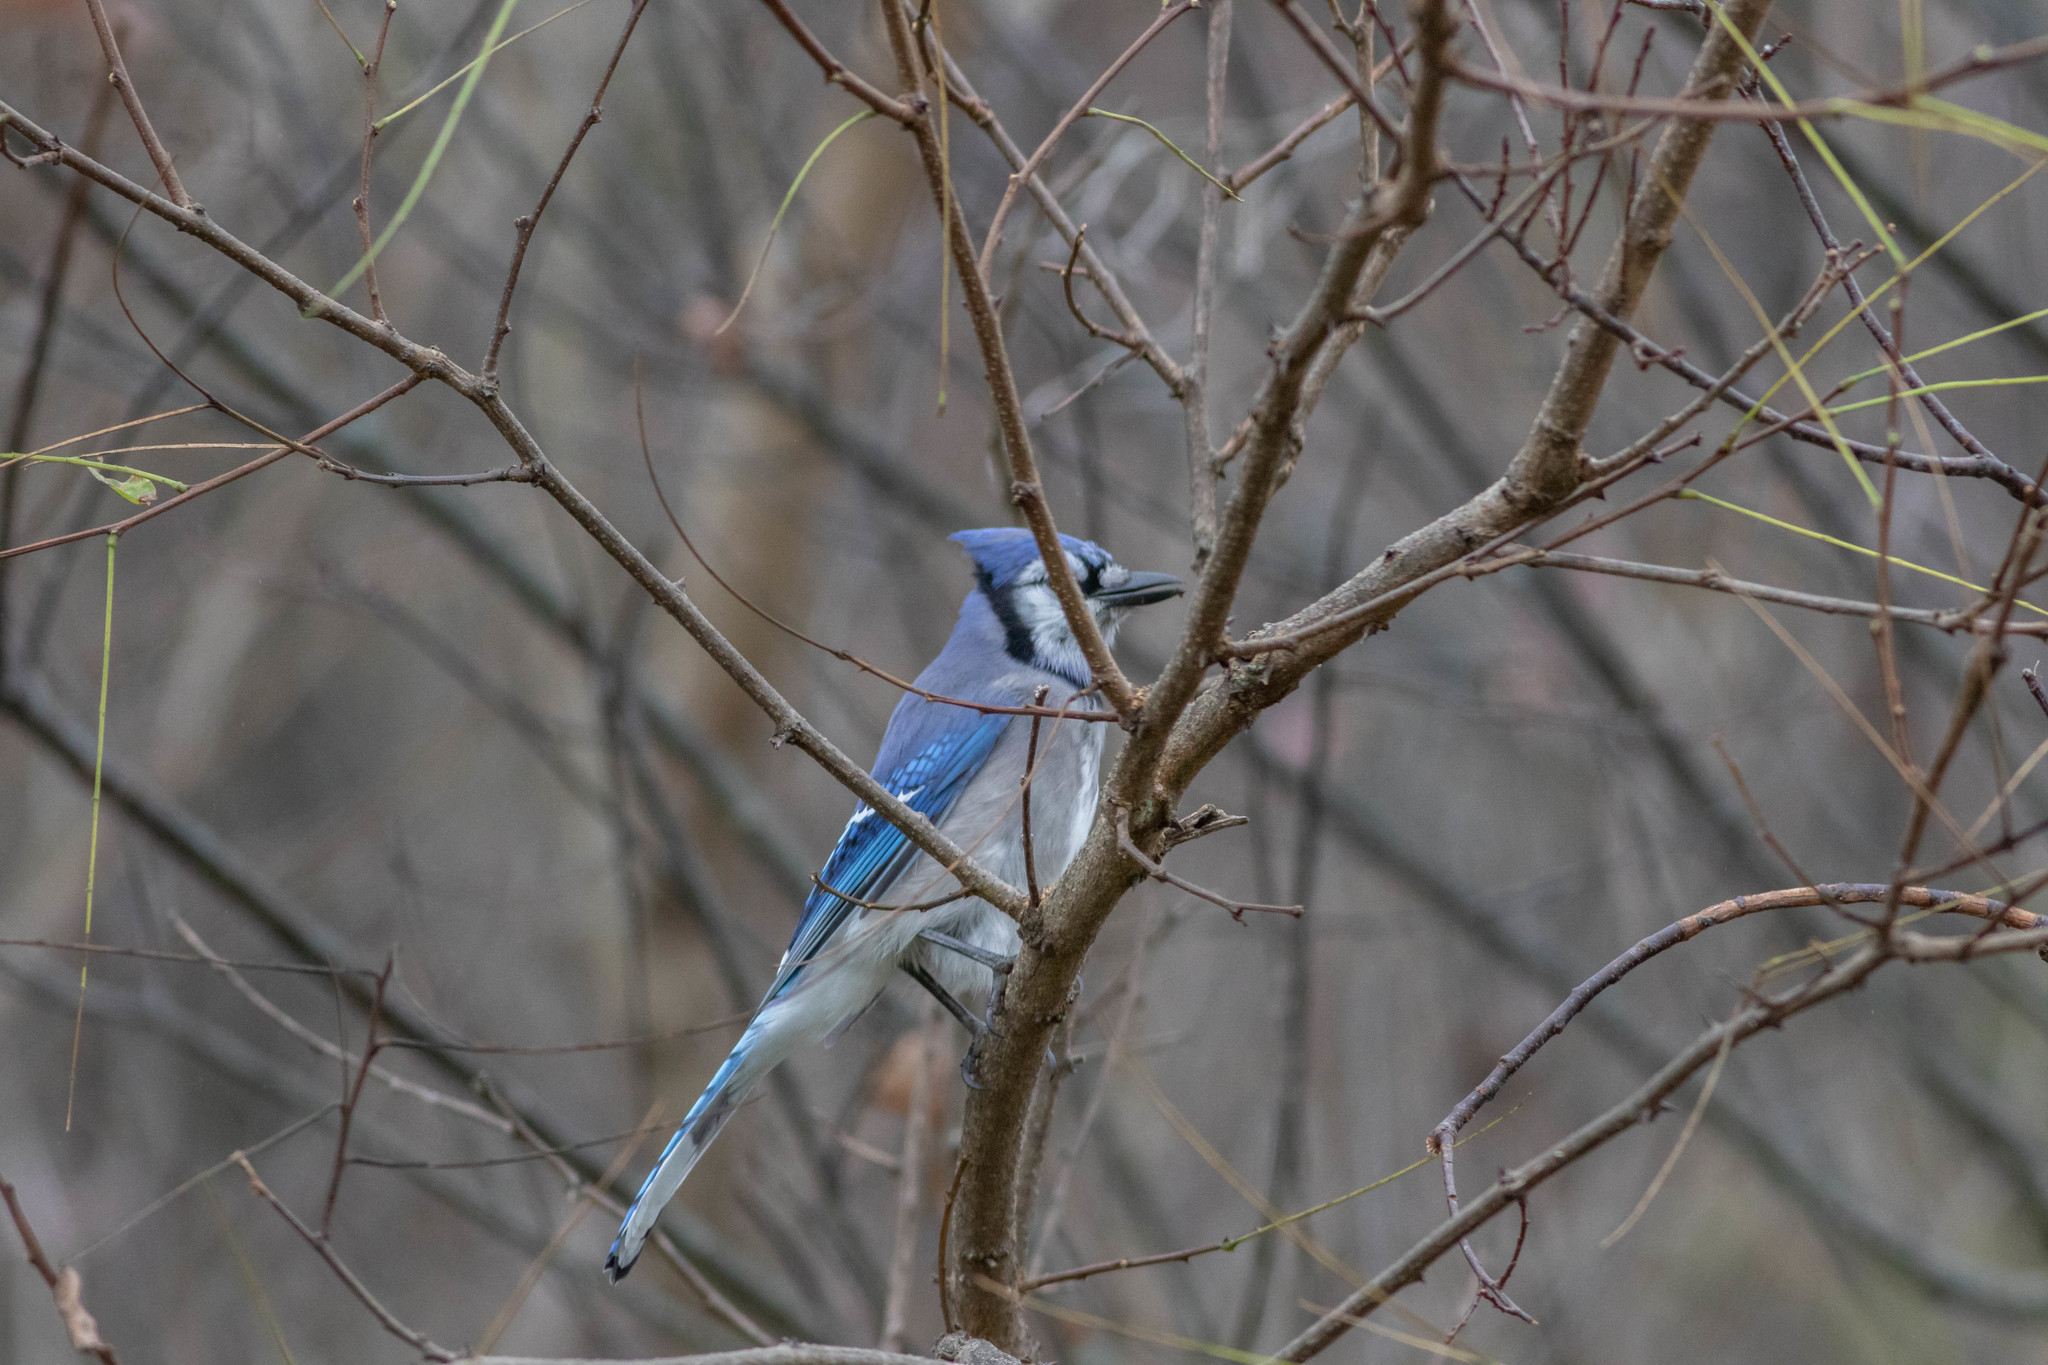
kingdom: Animalia
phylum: Chordata
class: Aves
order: Passeriformes
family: Corvidae
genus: Cyanocitta
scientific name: Cyanocitta cristata
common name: Blue jay
